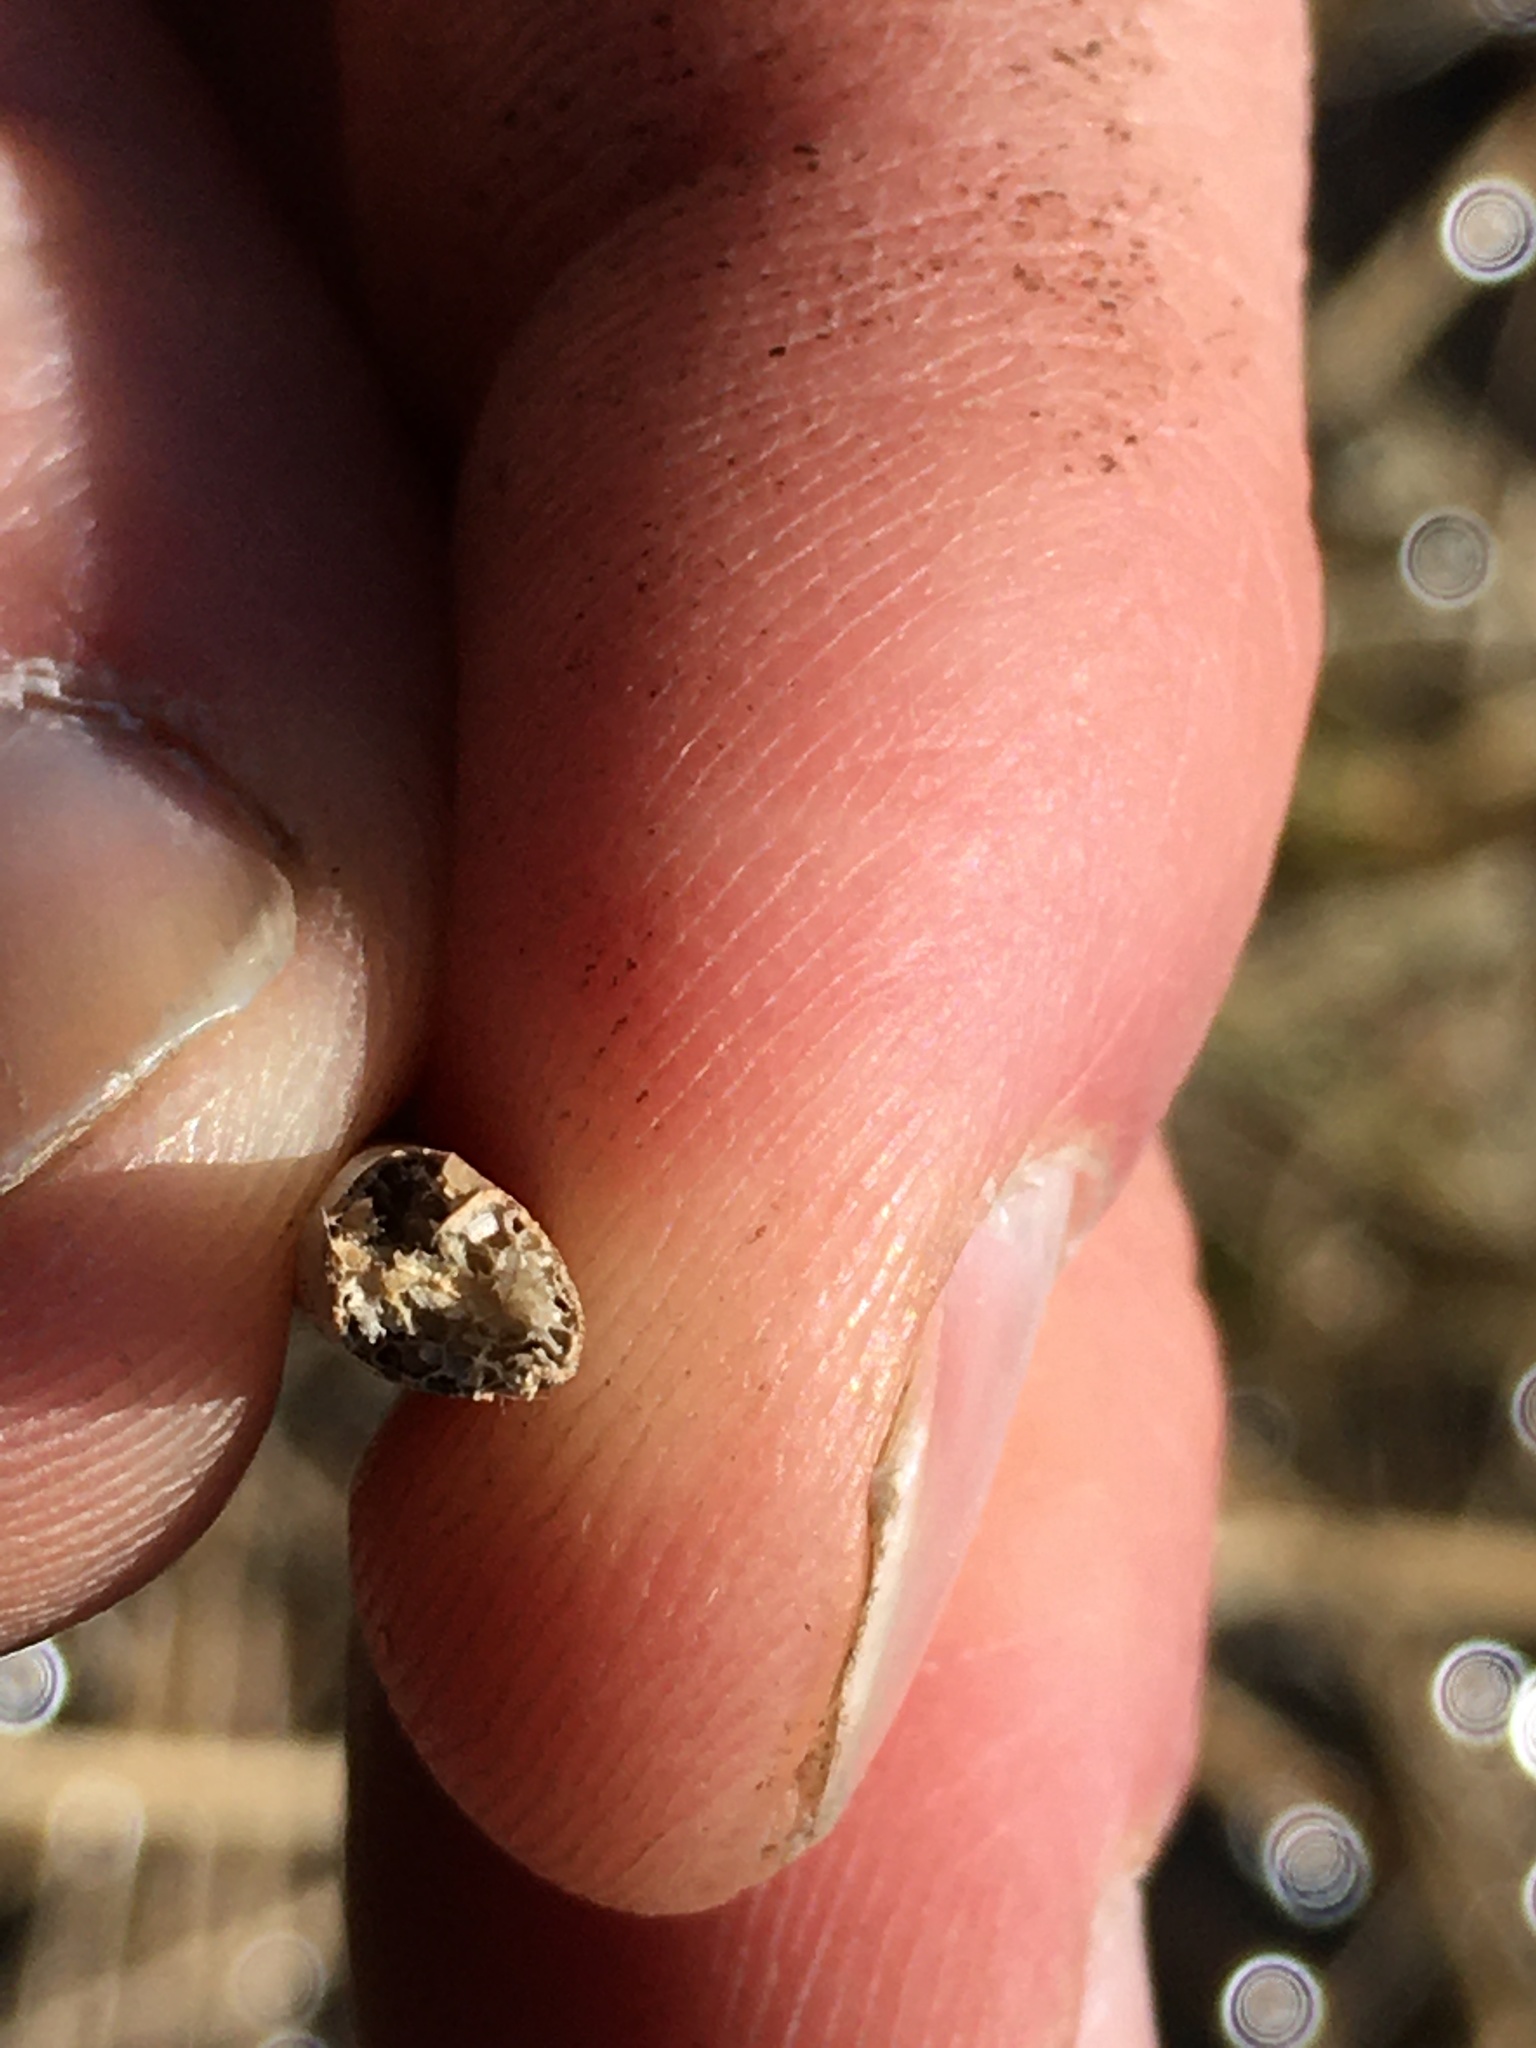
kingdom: Plantae
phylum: Tracheophyta
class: Liliopsida
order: Poales
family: Cyperaceae
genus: Schoenoplectus
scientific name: Schoenoplectus acutus
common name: Hardstem bulrush
